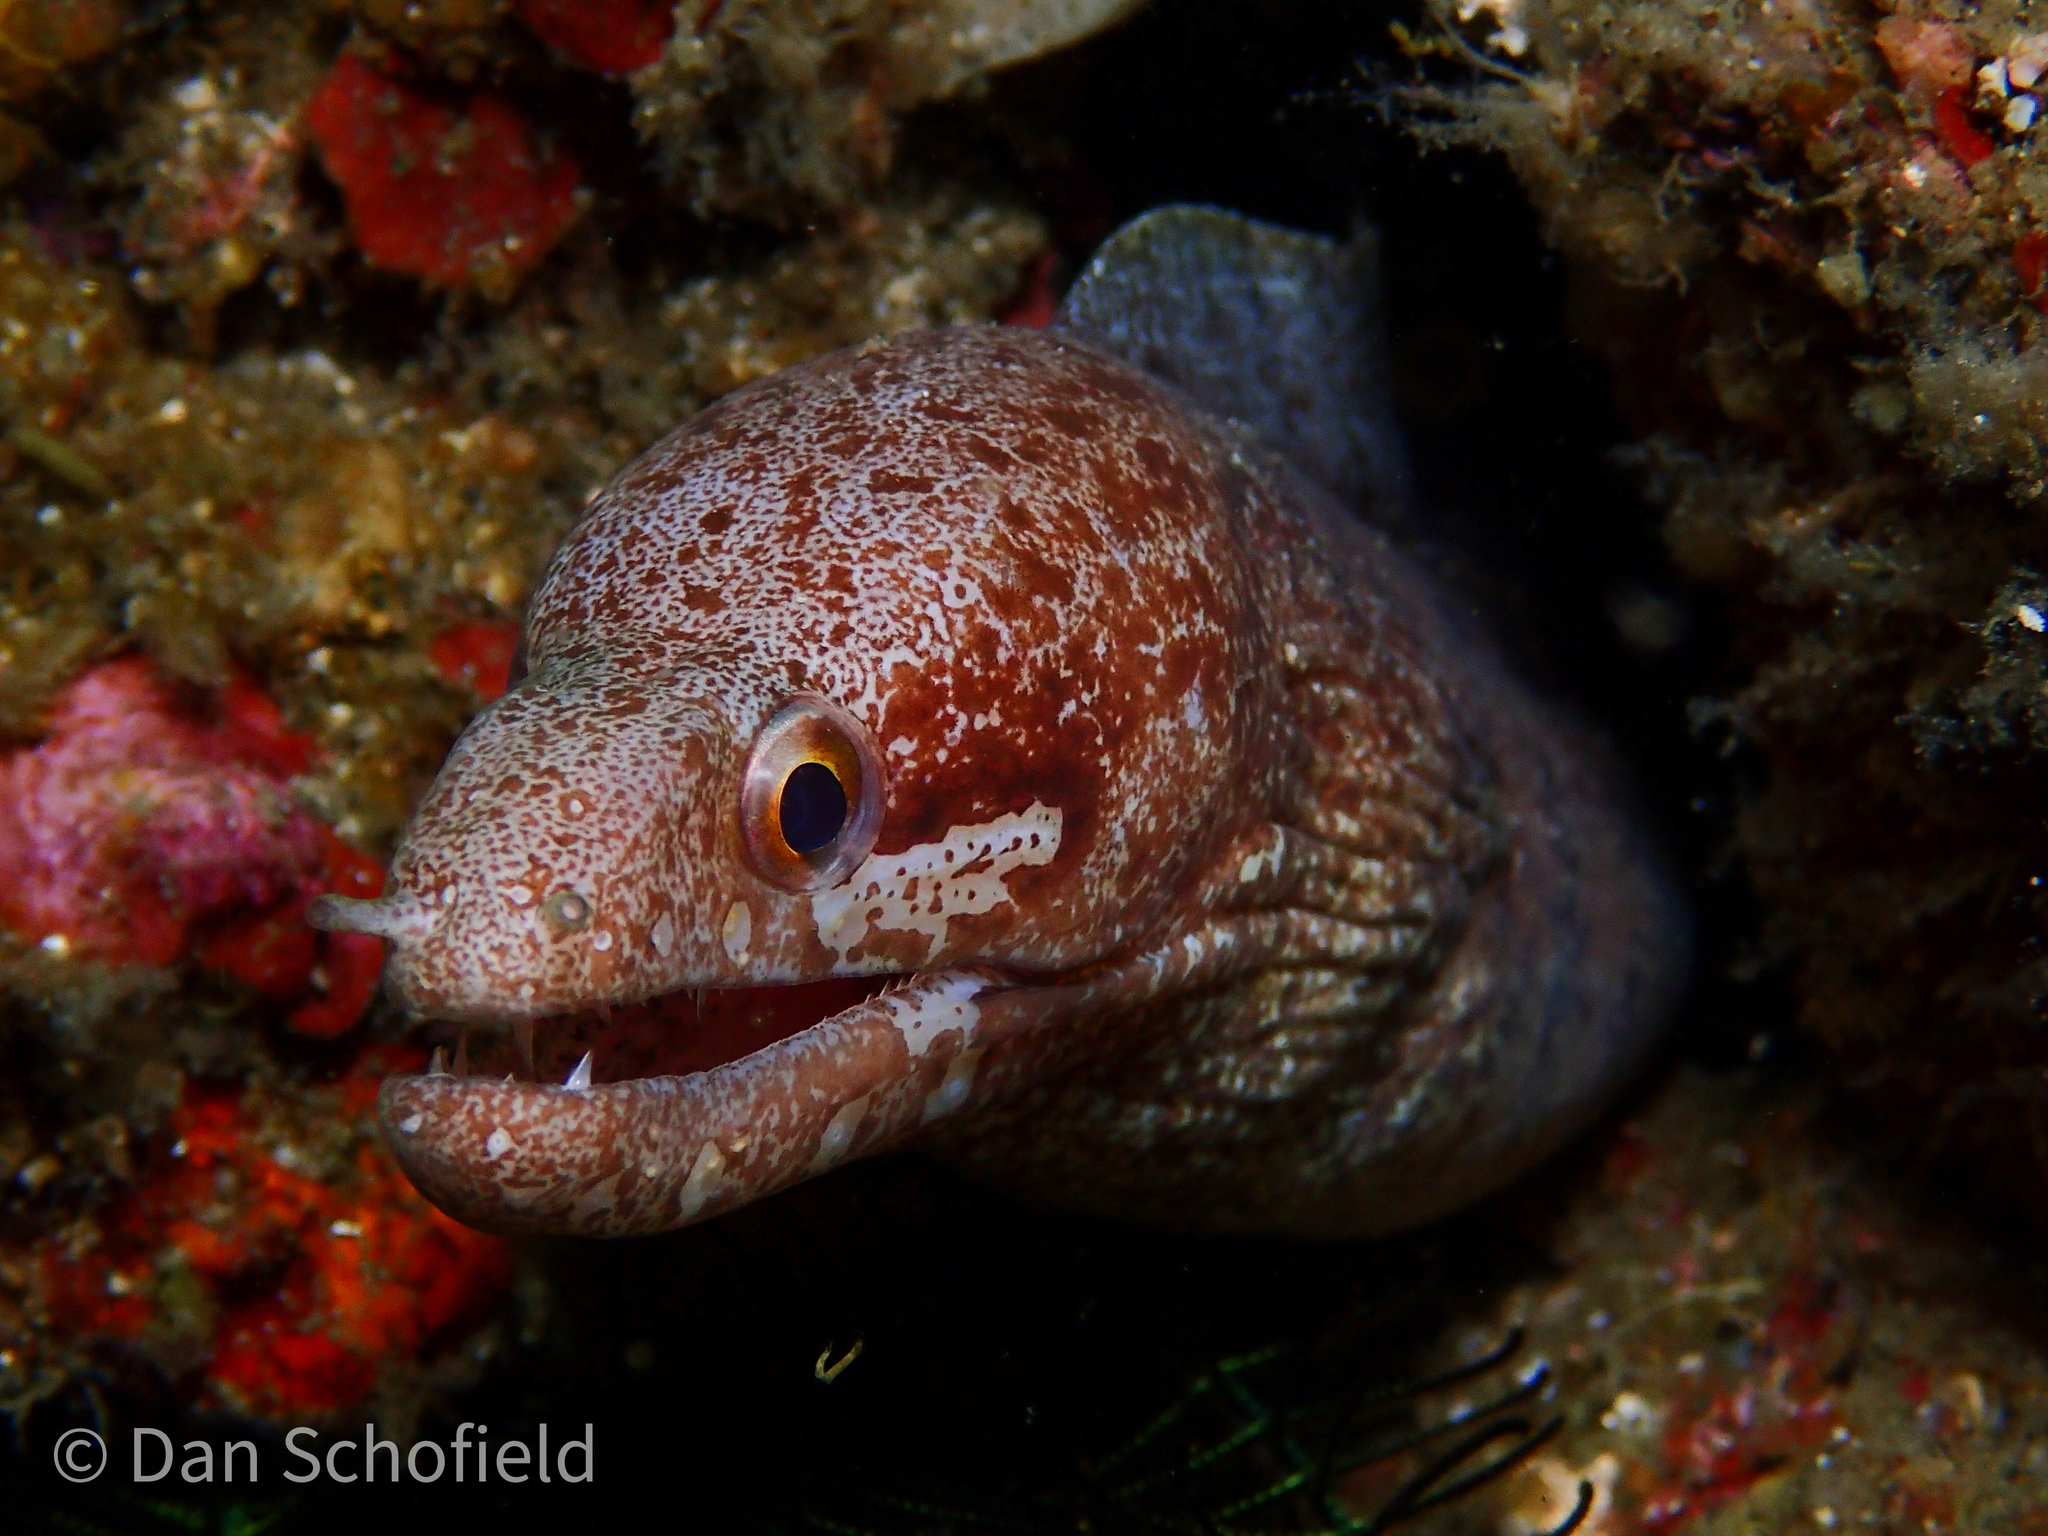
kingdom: Animalia
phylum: Chordata
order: Anguilliformes
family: Muraenidae
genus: Gymnothorax
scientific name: Gymnothorax zonipectis
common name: Bar-tail moray
